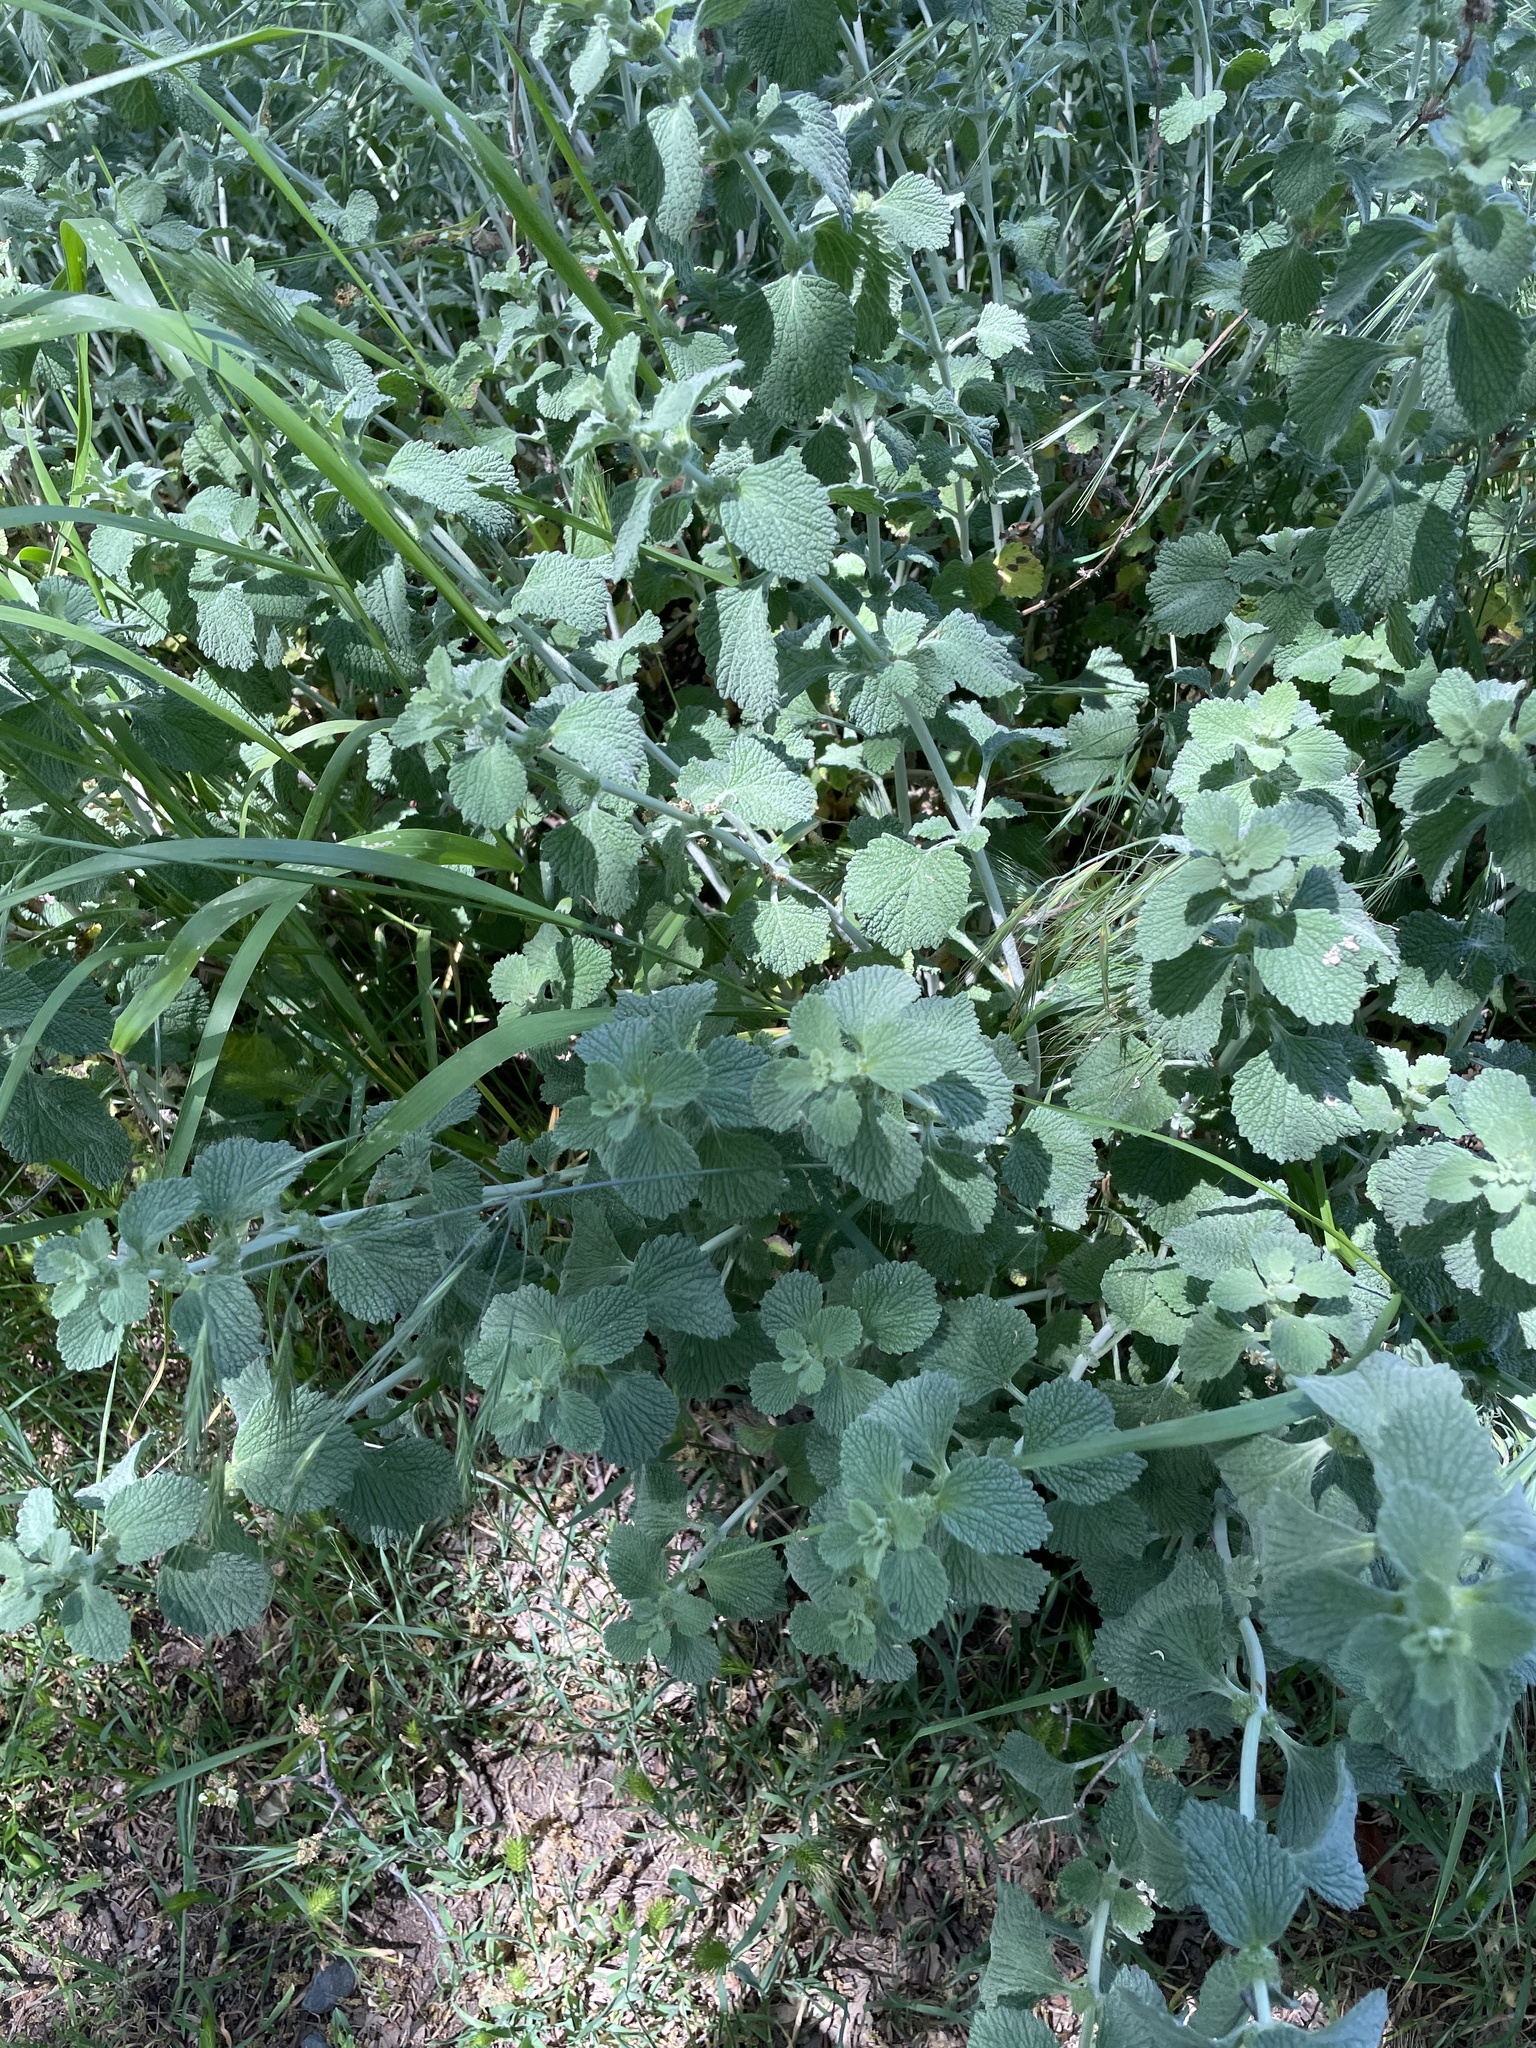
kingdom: Plantae
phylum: Tracheophyta
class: Magnoliopsida
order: Lamiales
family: Lamiaceae
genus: Marrubium
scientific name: Marrubium vulgare
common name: Horehound
